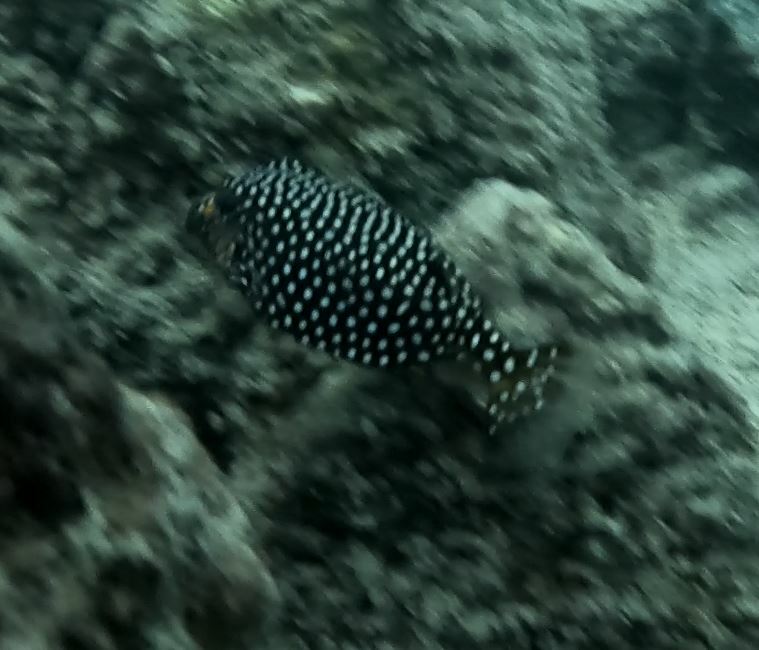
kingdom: Animalia
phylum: Chordata
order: Tetraodontiformes
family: Ostraciidae
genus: Ostracion
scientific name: Ostracion meleagris
